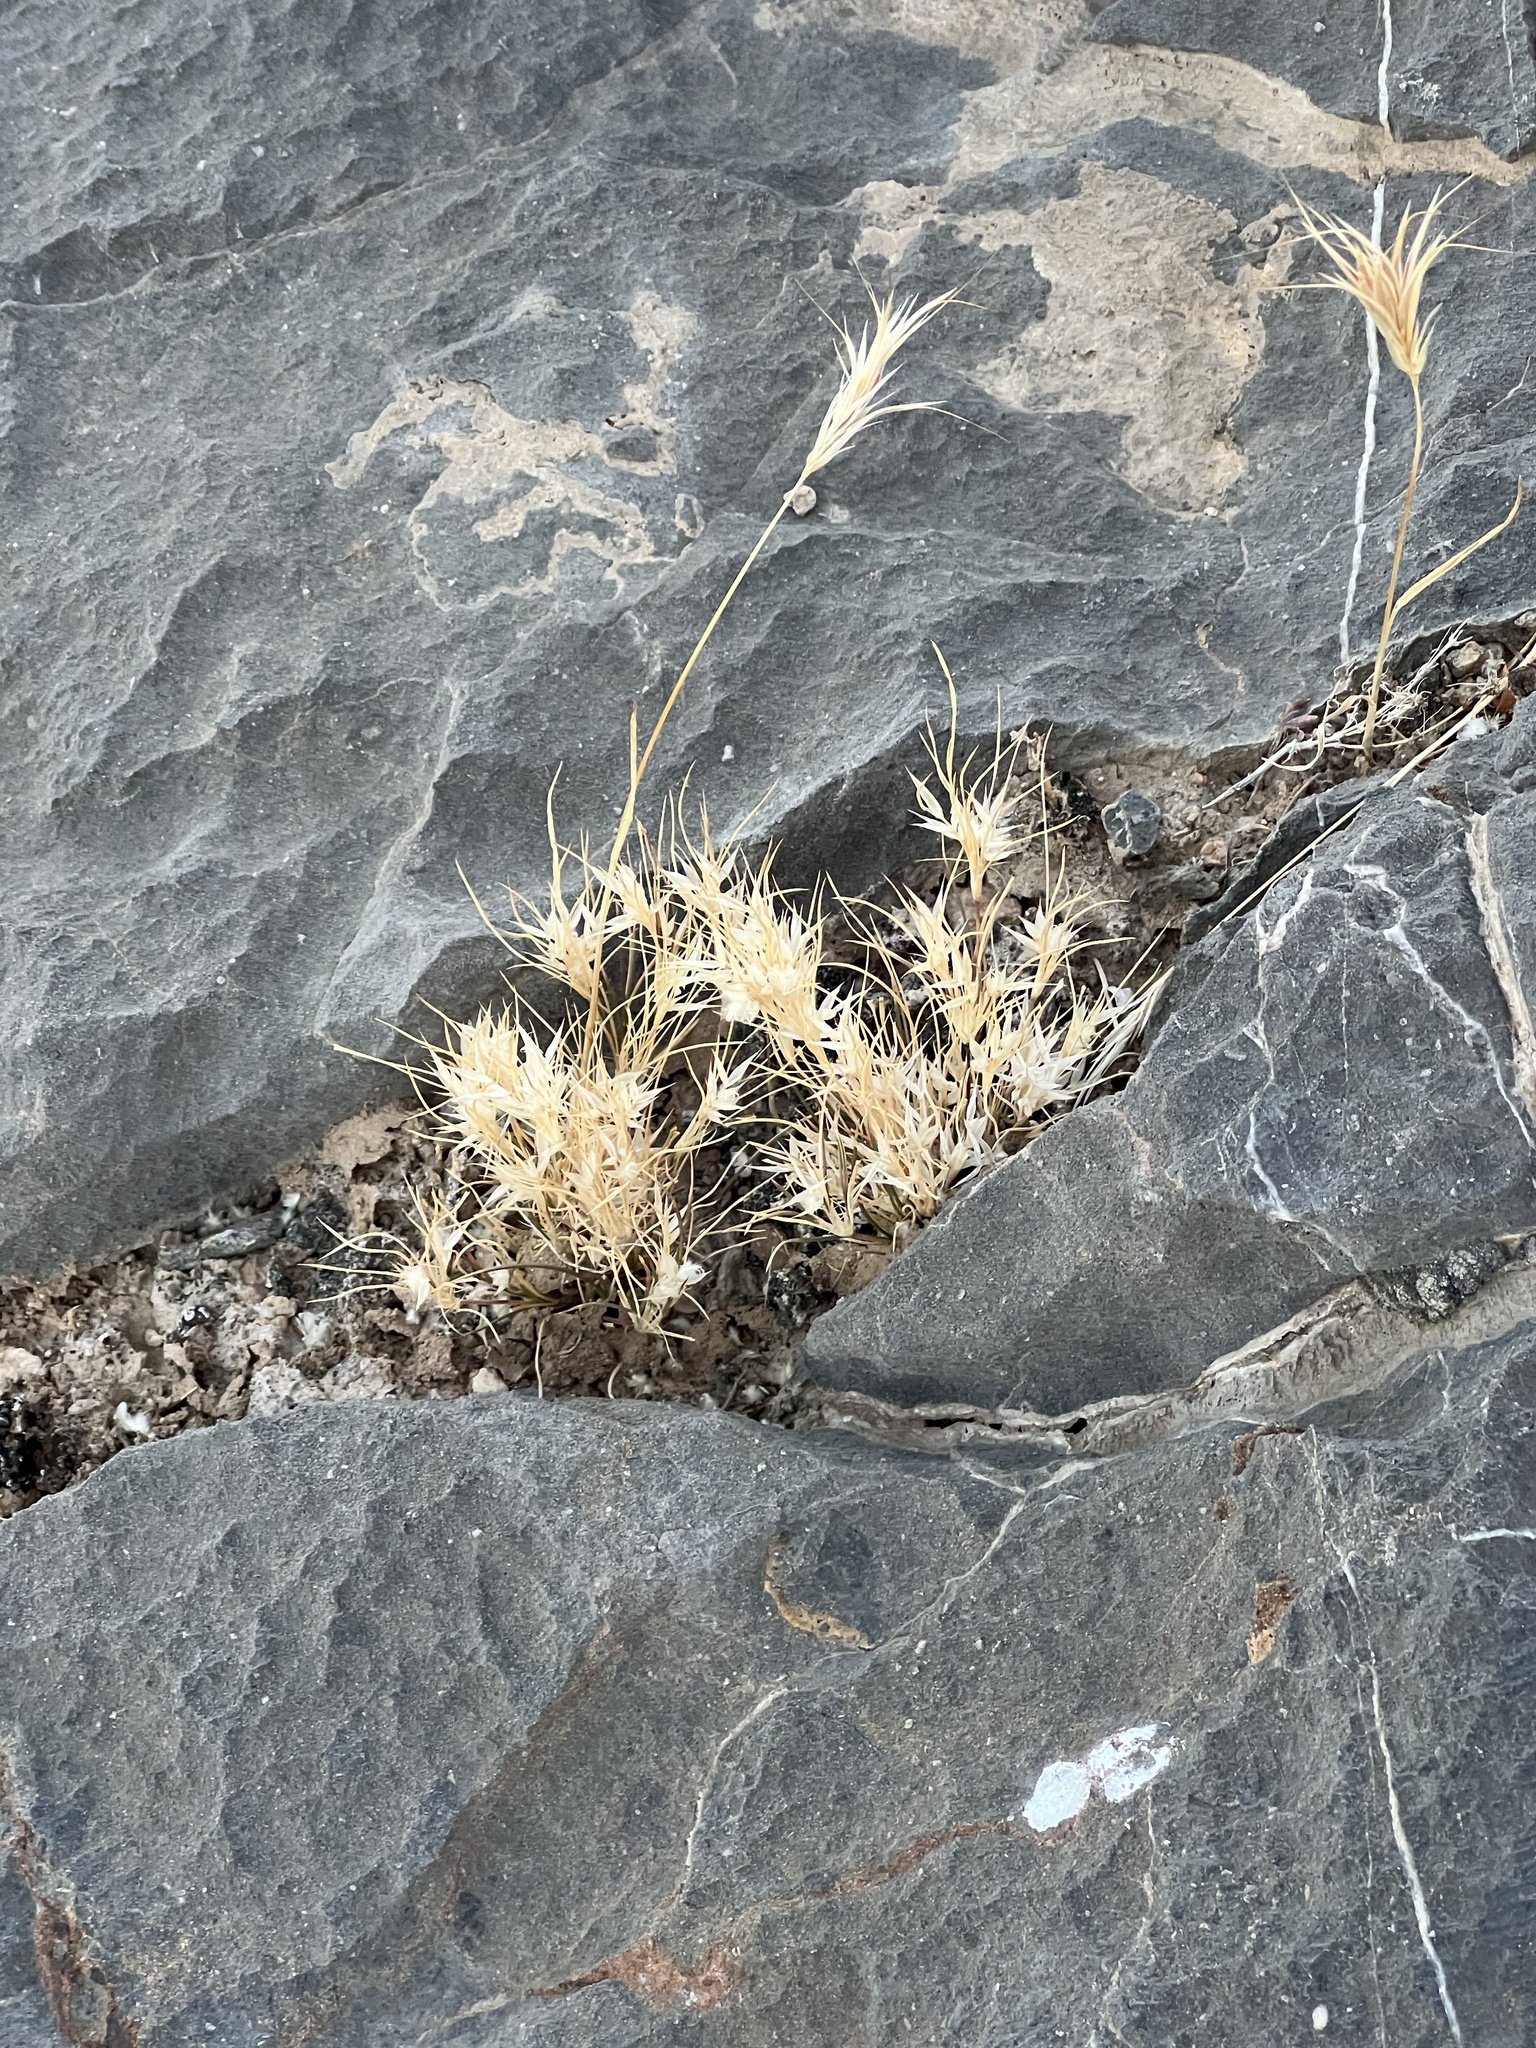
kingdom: Plantae
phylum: Tracheophyta
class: Liliopsida
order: Poales
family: Poaceae
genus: Dasyochloa
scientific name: Dasyochloa pulchella
